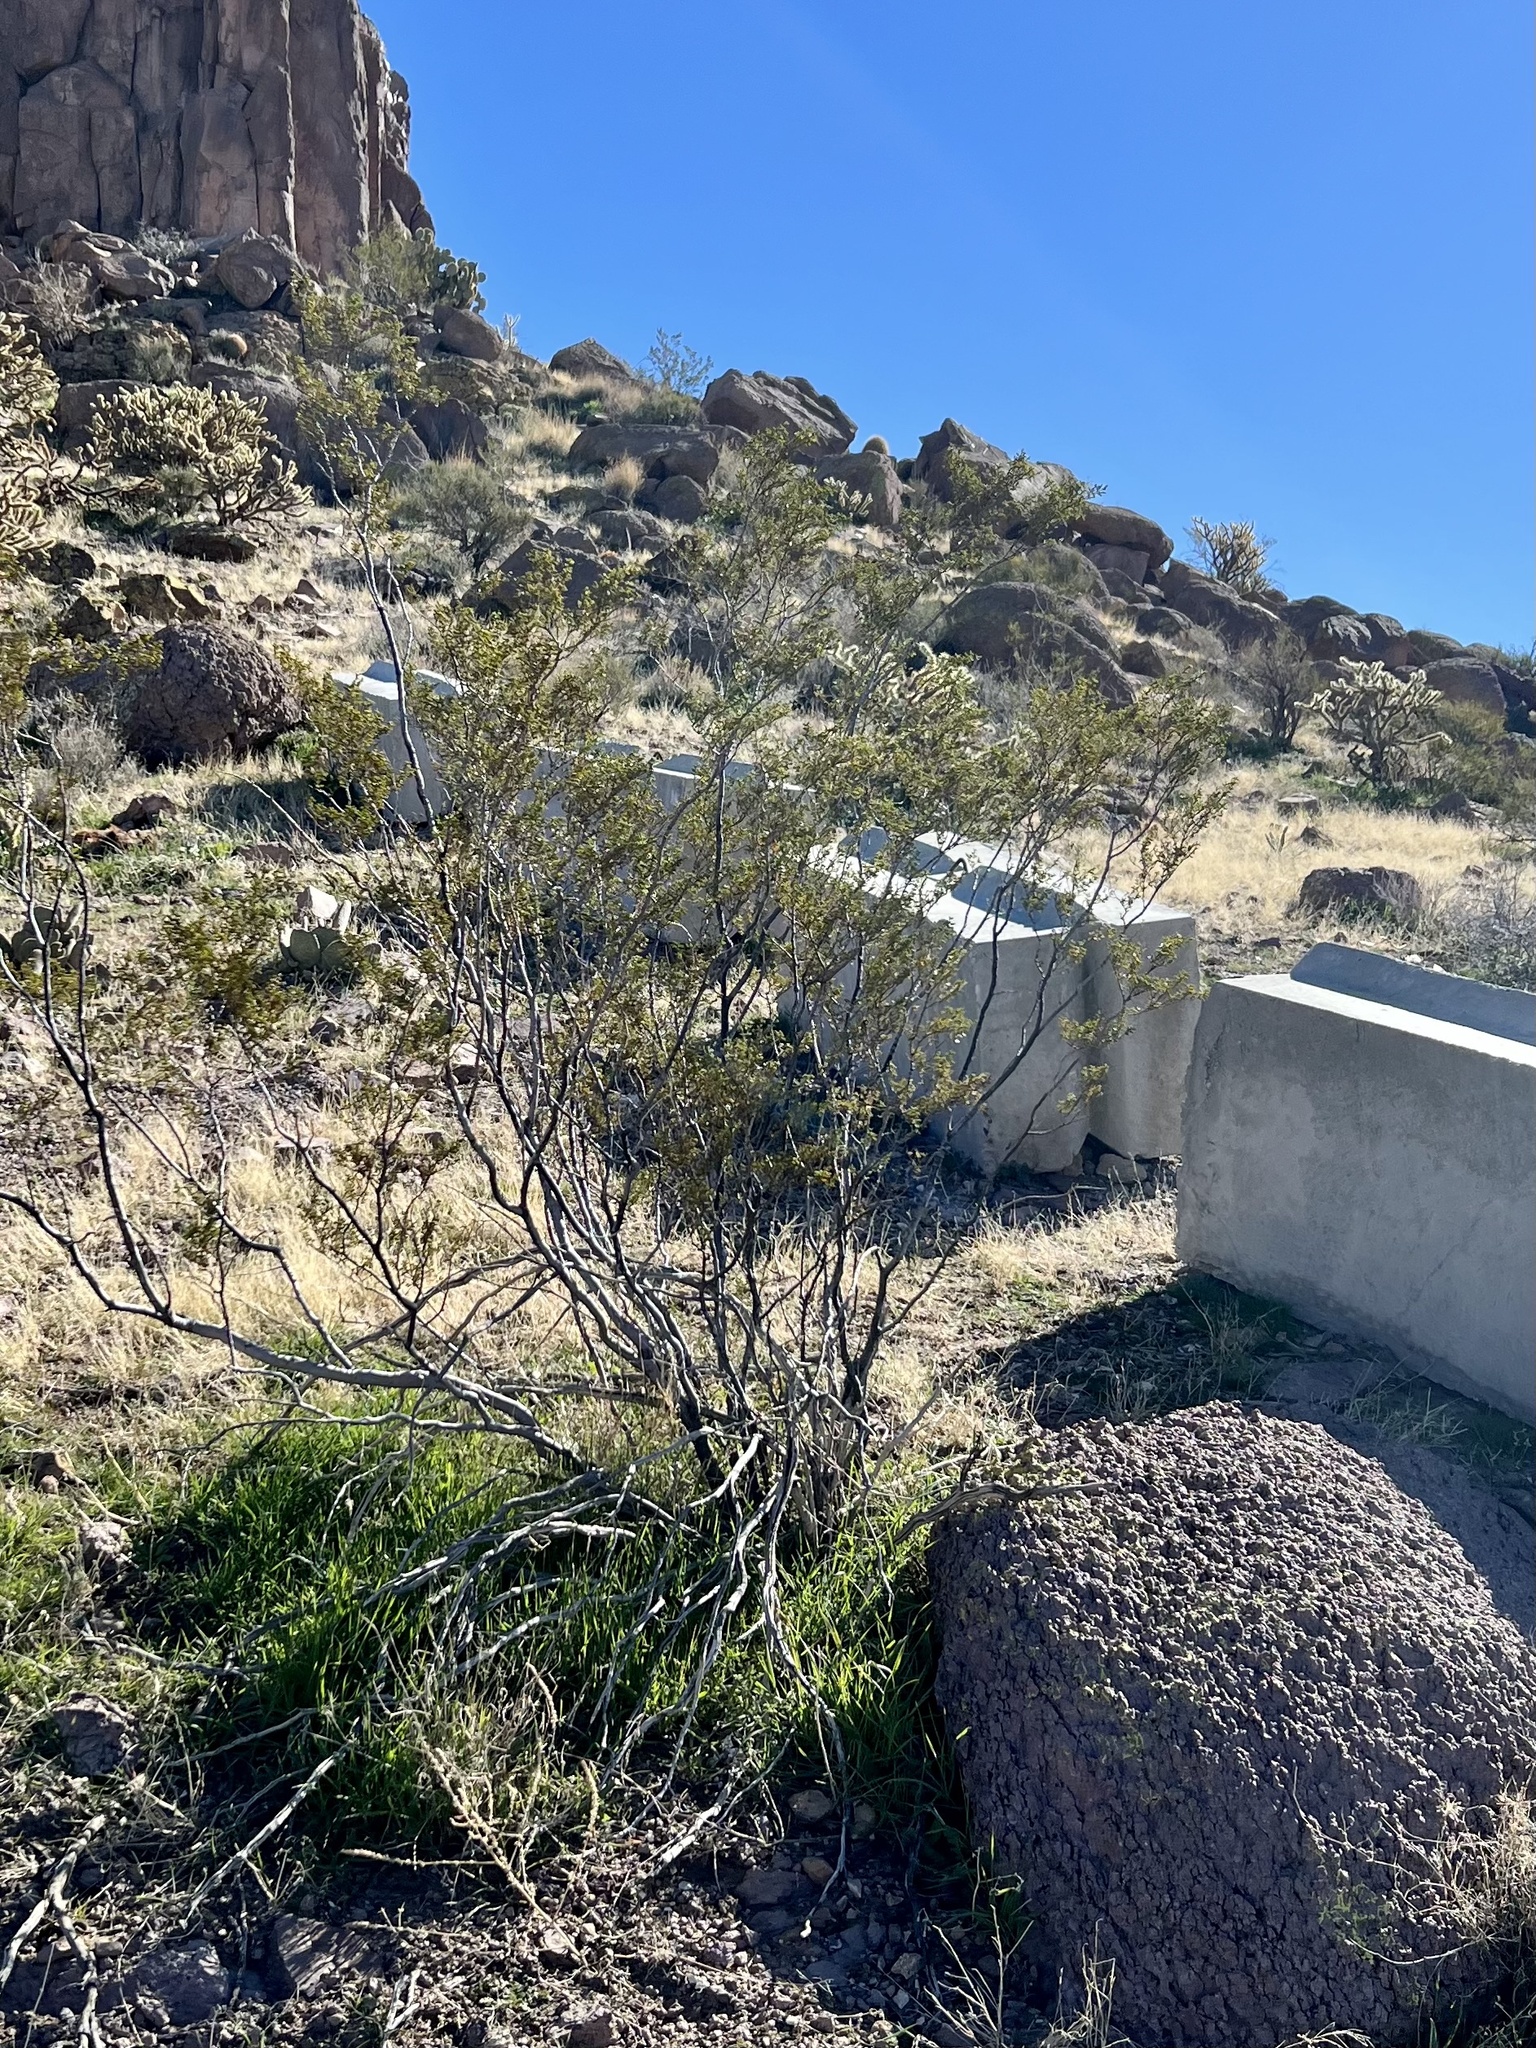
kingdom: Plantae
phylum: Tracheophyta
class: Magnoliopsida
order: Zygophyllales
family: Zygophyllaceae
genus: Larrea
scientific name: Larrea tridentata
